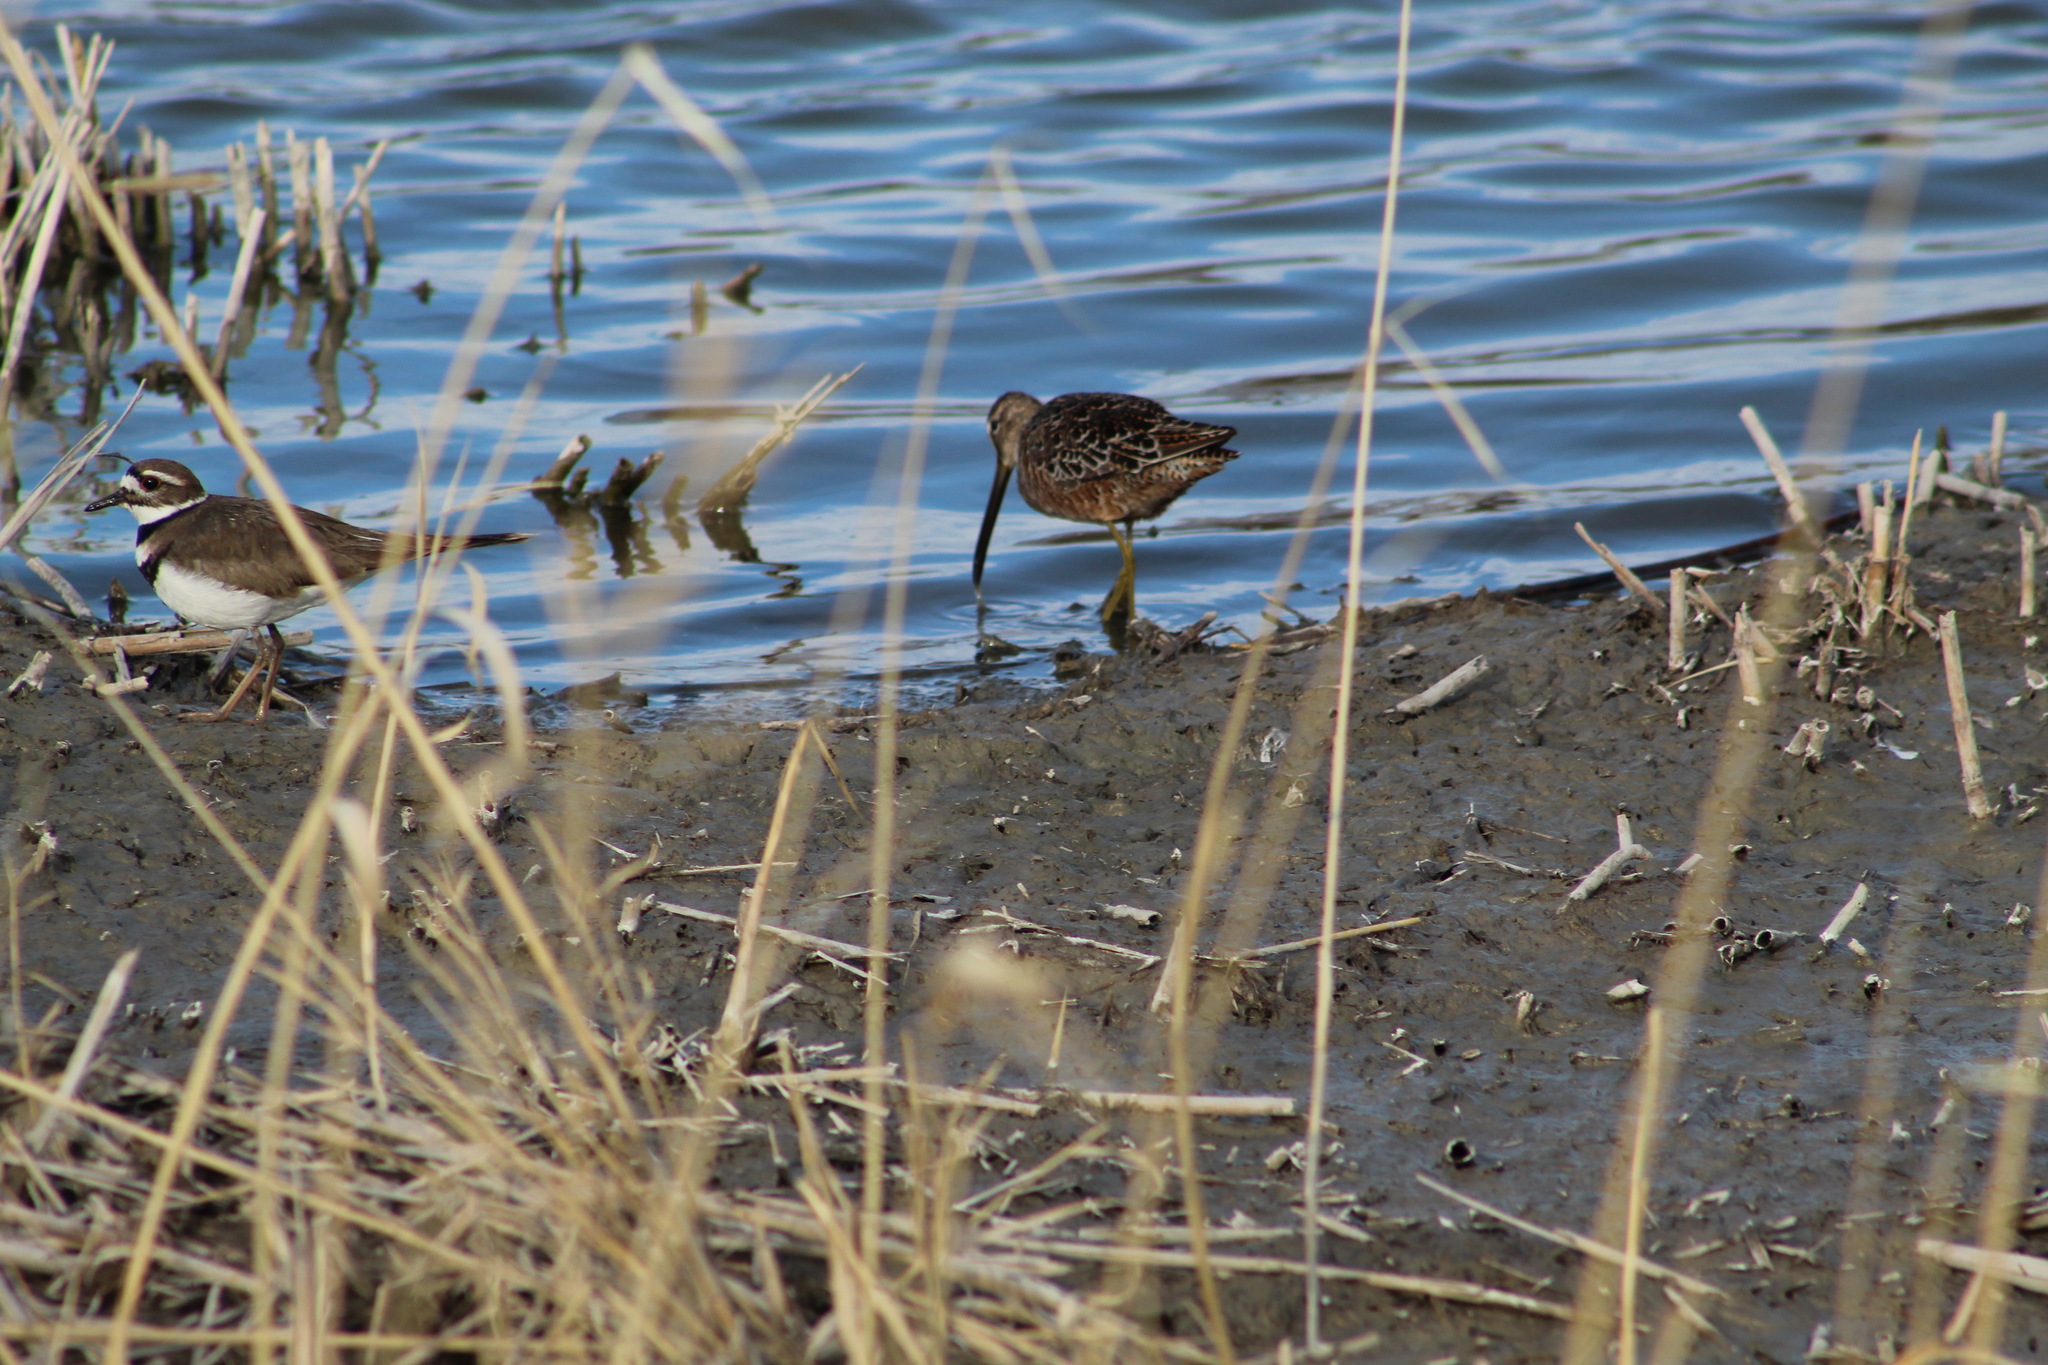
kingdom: Animalia
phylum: Chordata
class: Aves
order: Charadriiformes
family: Charadriidae
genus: Charadrius
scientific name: Charadrius vociferus
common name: Killdeer
